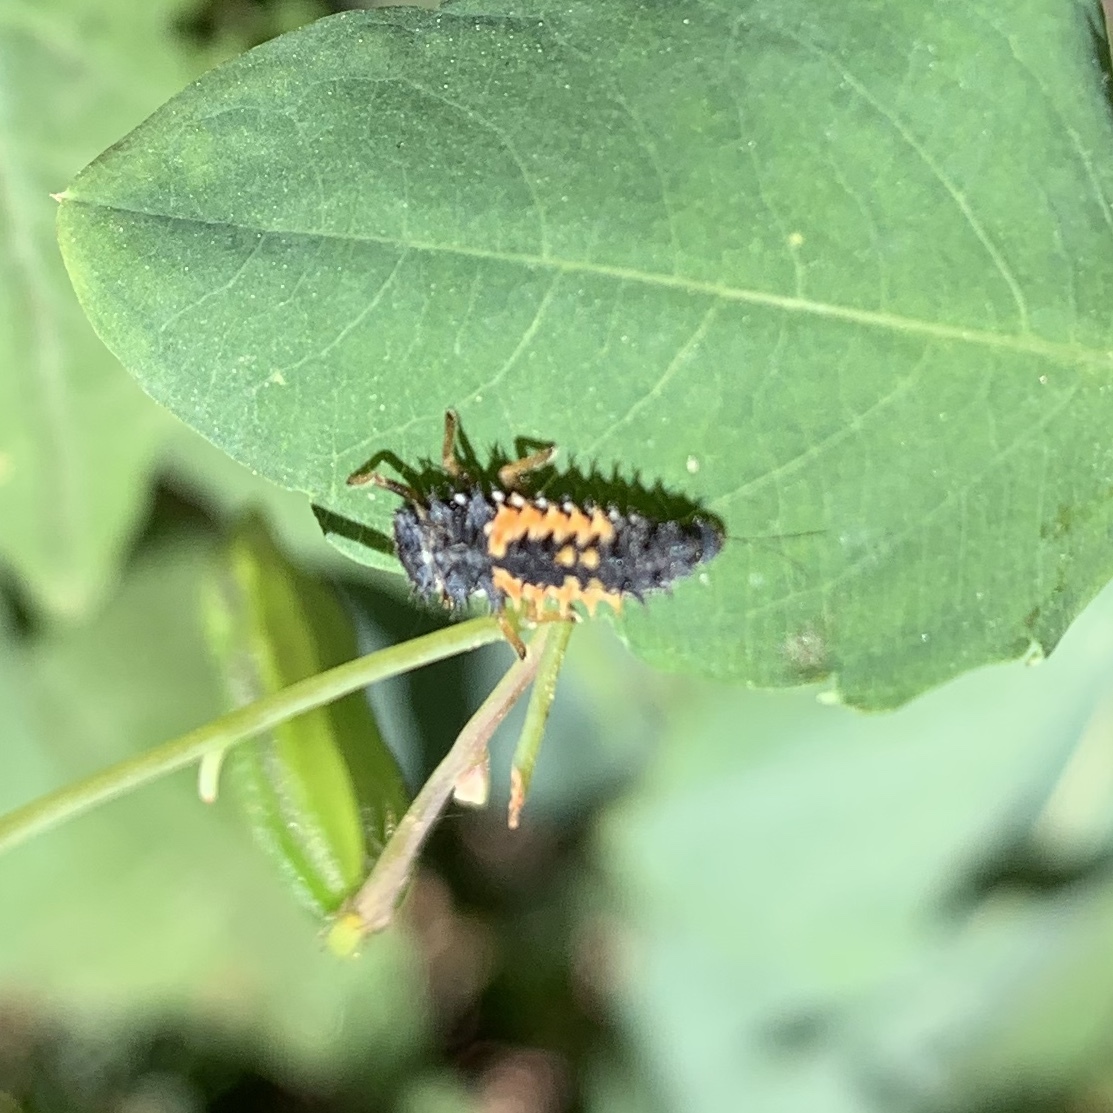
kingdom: Animalia
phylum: Arthropoda
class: Insecta
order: Coleoptera
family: Coccinellidae
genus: Harmonia
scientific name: Harmonia axyridis
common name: Harlequin ladybird
